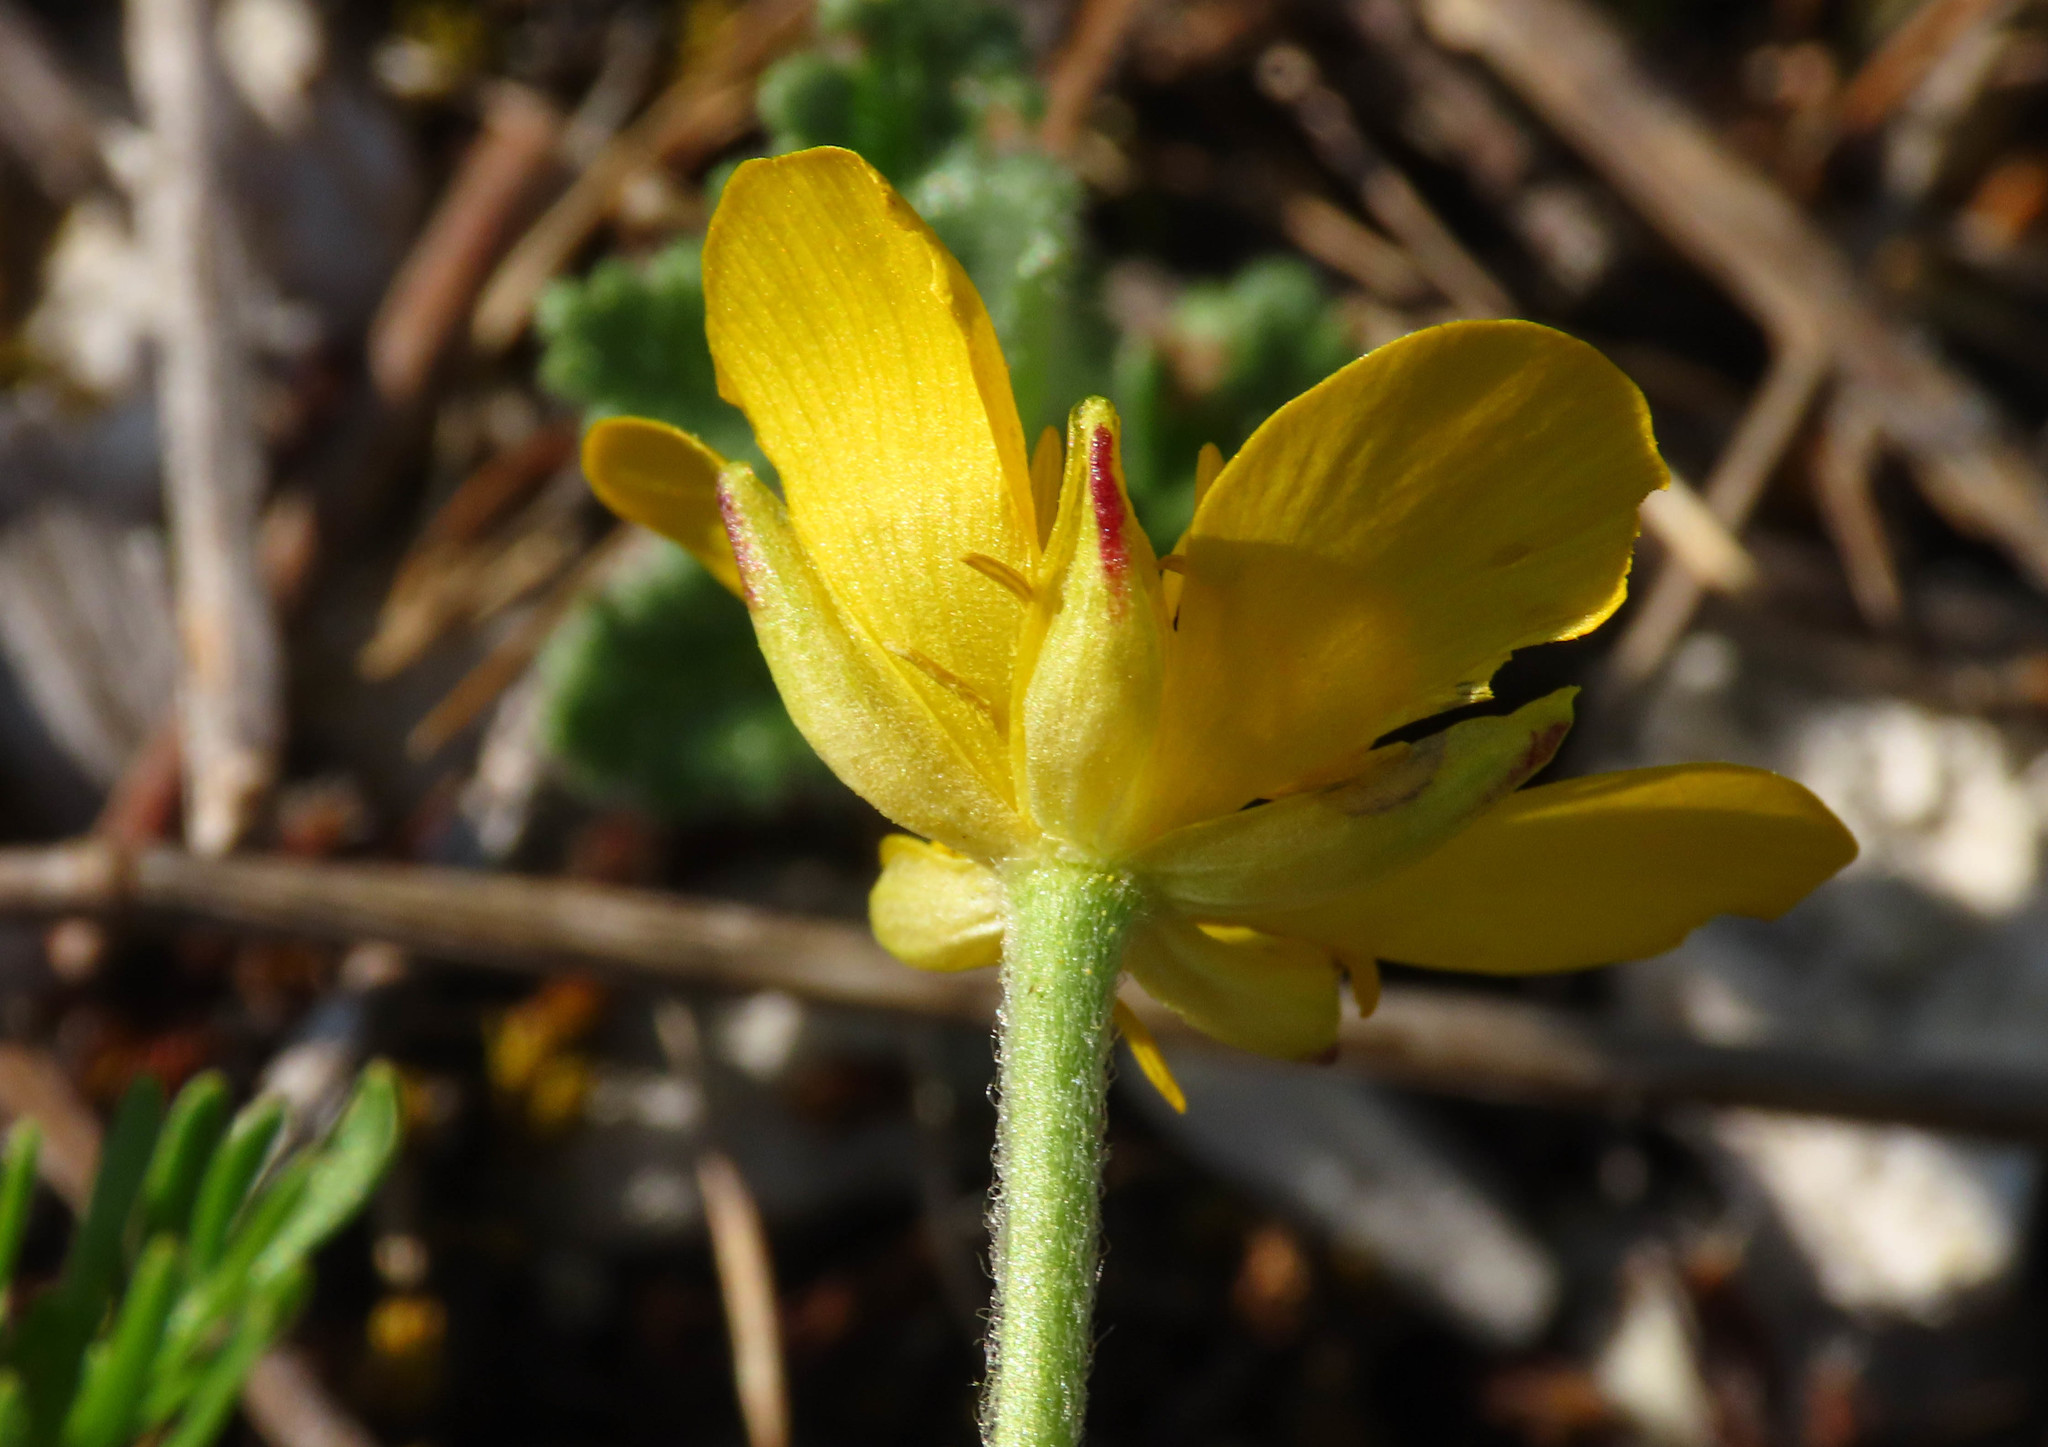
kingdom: Plantae
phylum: Tracheophyta
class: Magnoliopsida
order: Ranunculales
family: Ranunculaceae
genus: Ranunculus
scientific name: Ranunculus millefoliatus
